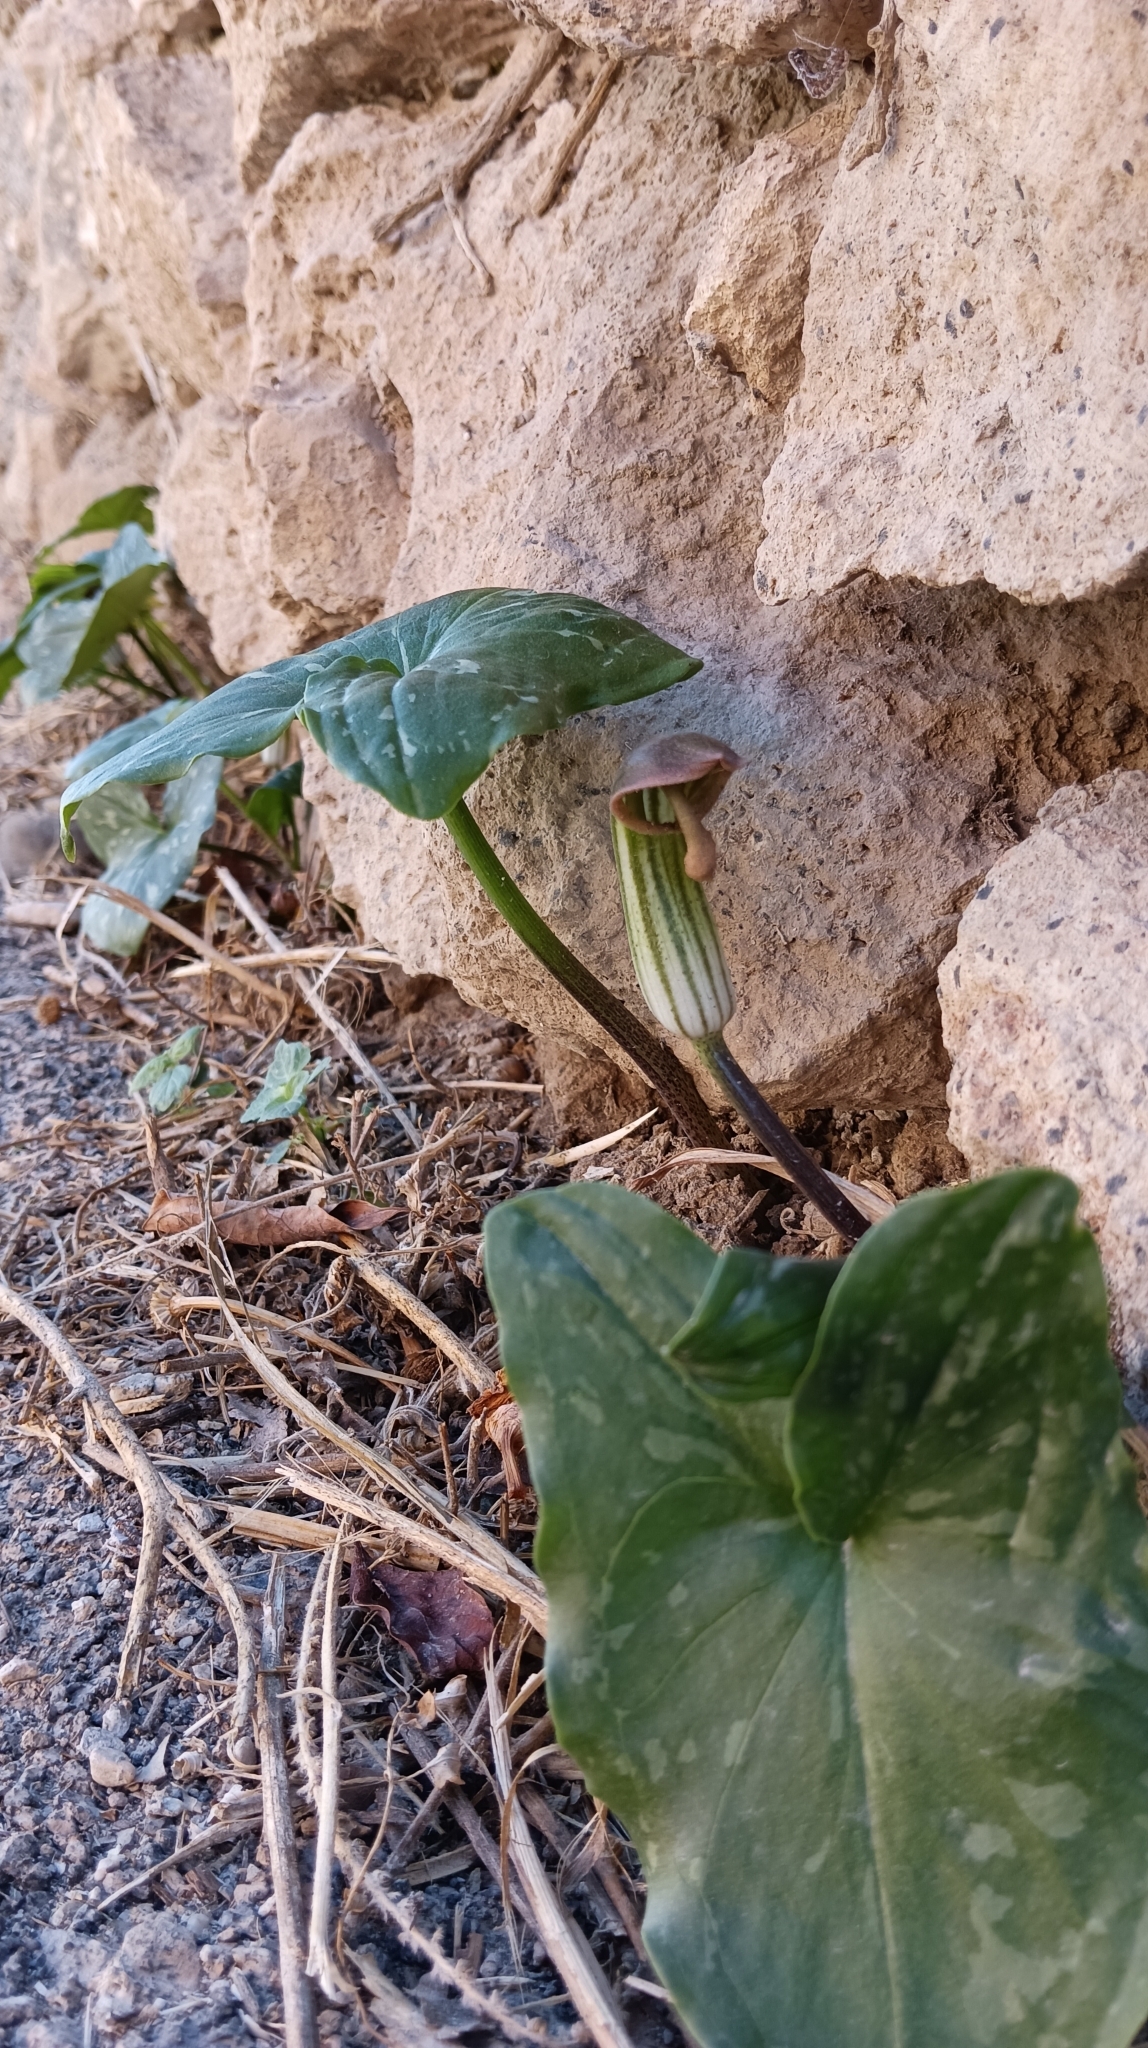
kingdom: Plantae
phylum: Tracheophyta
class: Liliopsida
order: Alismatales
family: Araceae
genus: Arisarum
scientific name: Arisarum vulgare
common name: Common arisarum
